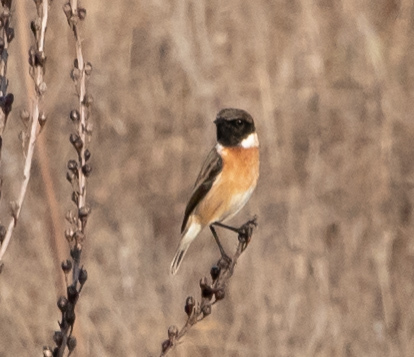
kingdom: Animalia
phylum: Chordata
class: Aves
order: Passeriformes
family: Muscicapidae
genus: Saxicola
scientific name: Saxicola rubicola
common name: European stonechat
